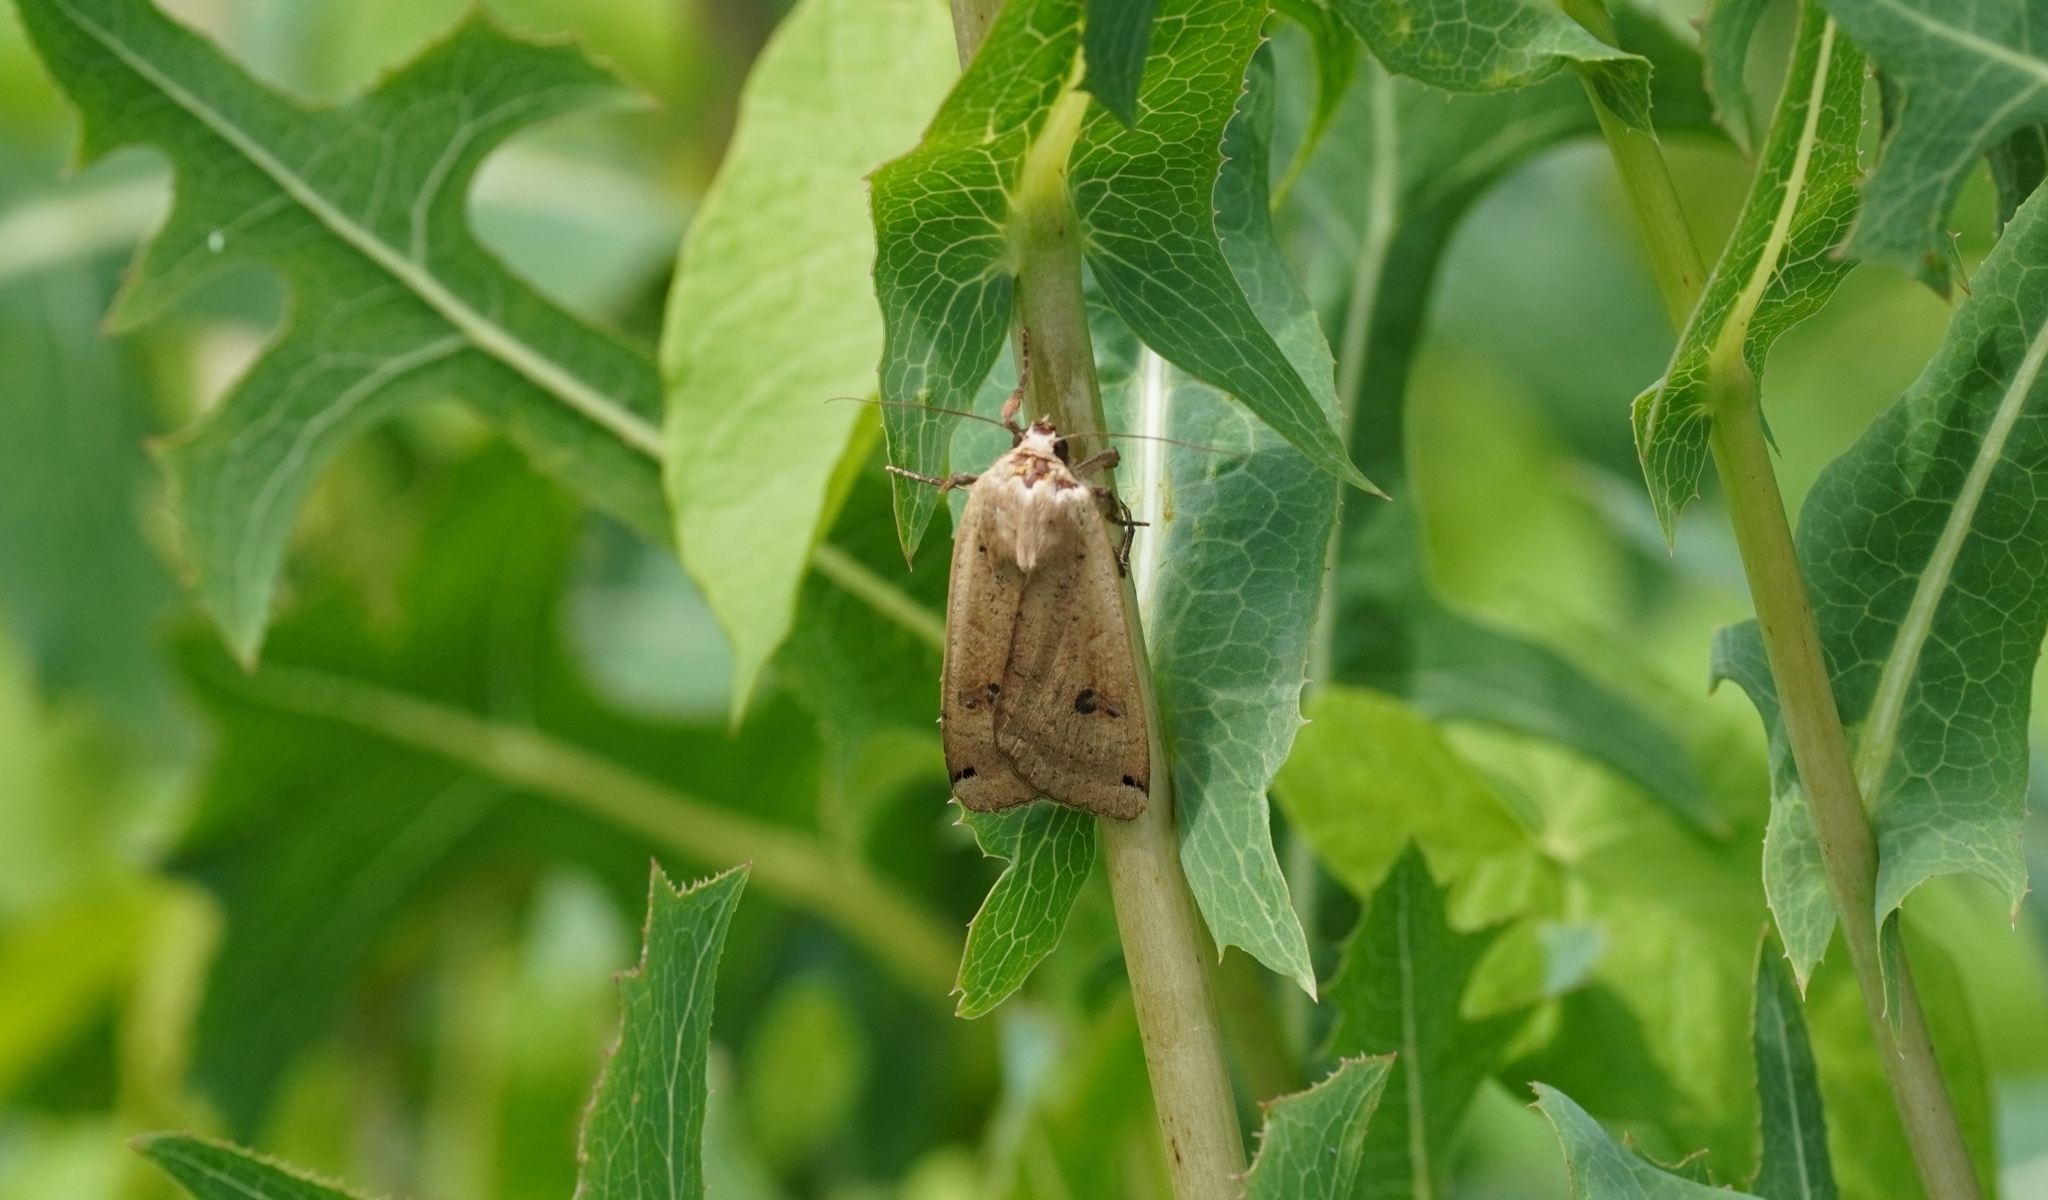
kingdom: Animalia
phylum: Arthropoda
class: Insecta
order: Lepidoptera
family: Noctuidae
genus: Noctua
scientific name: Noctua pronuba
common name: Large yellow underwing
